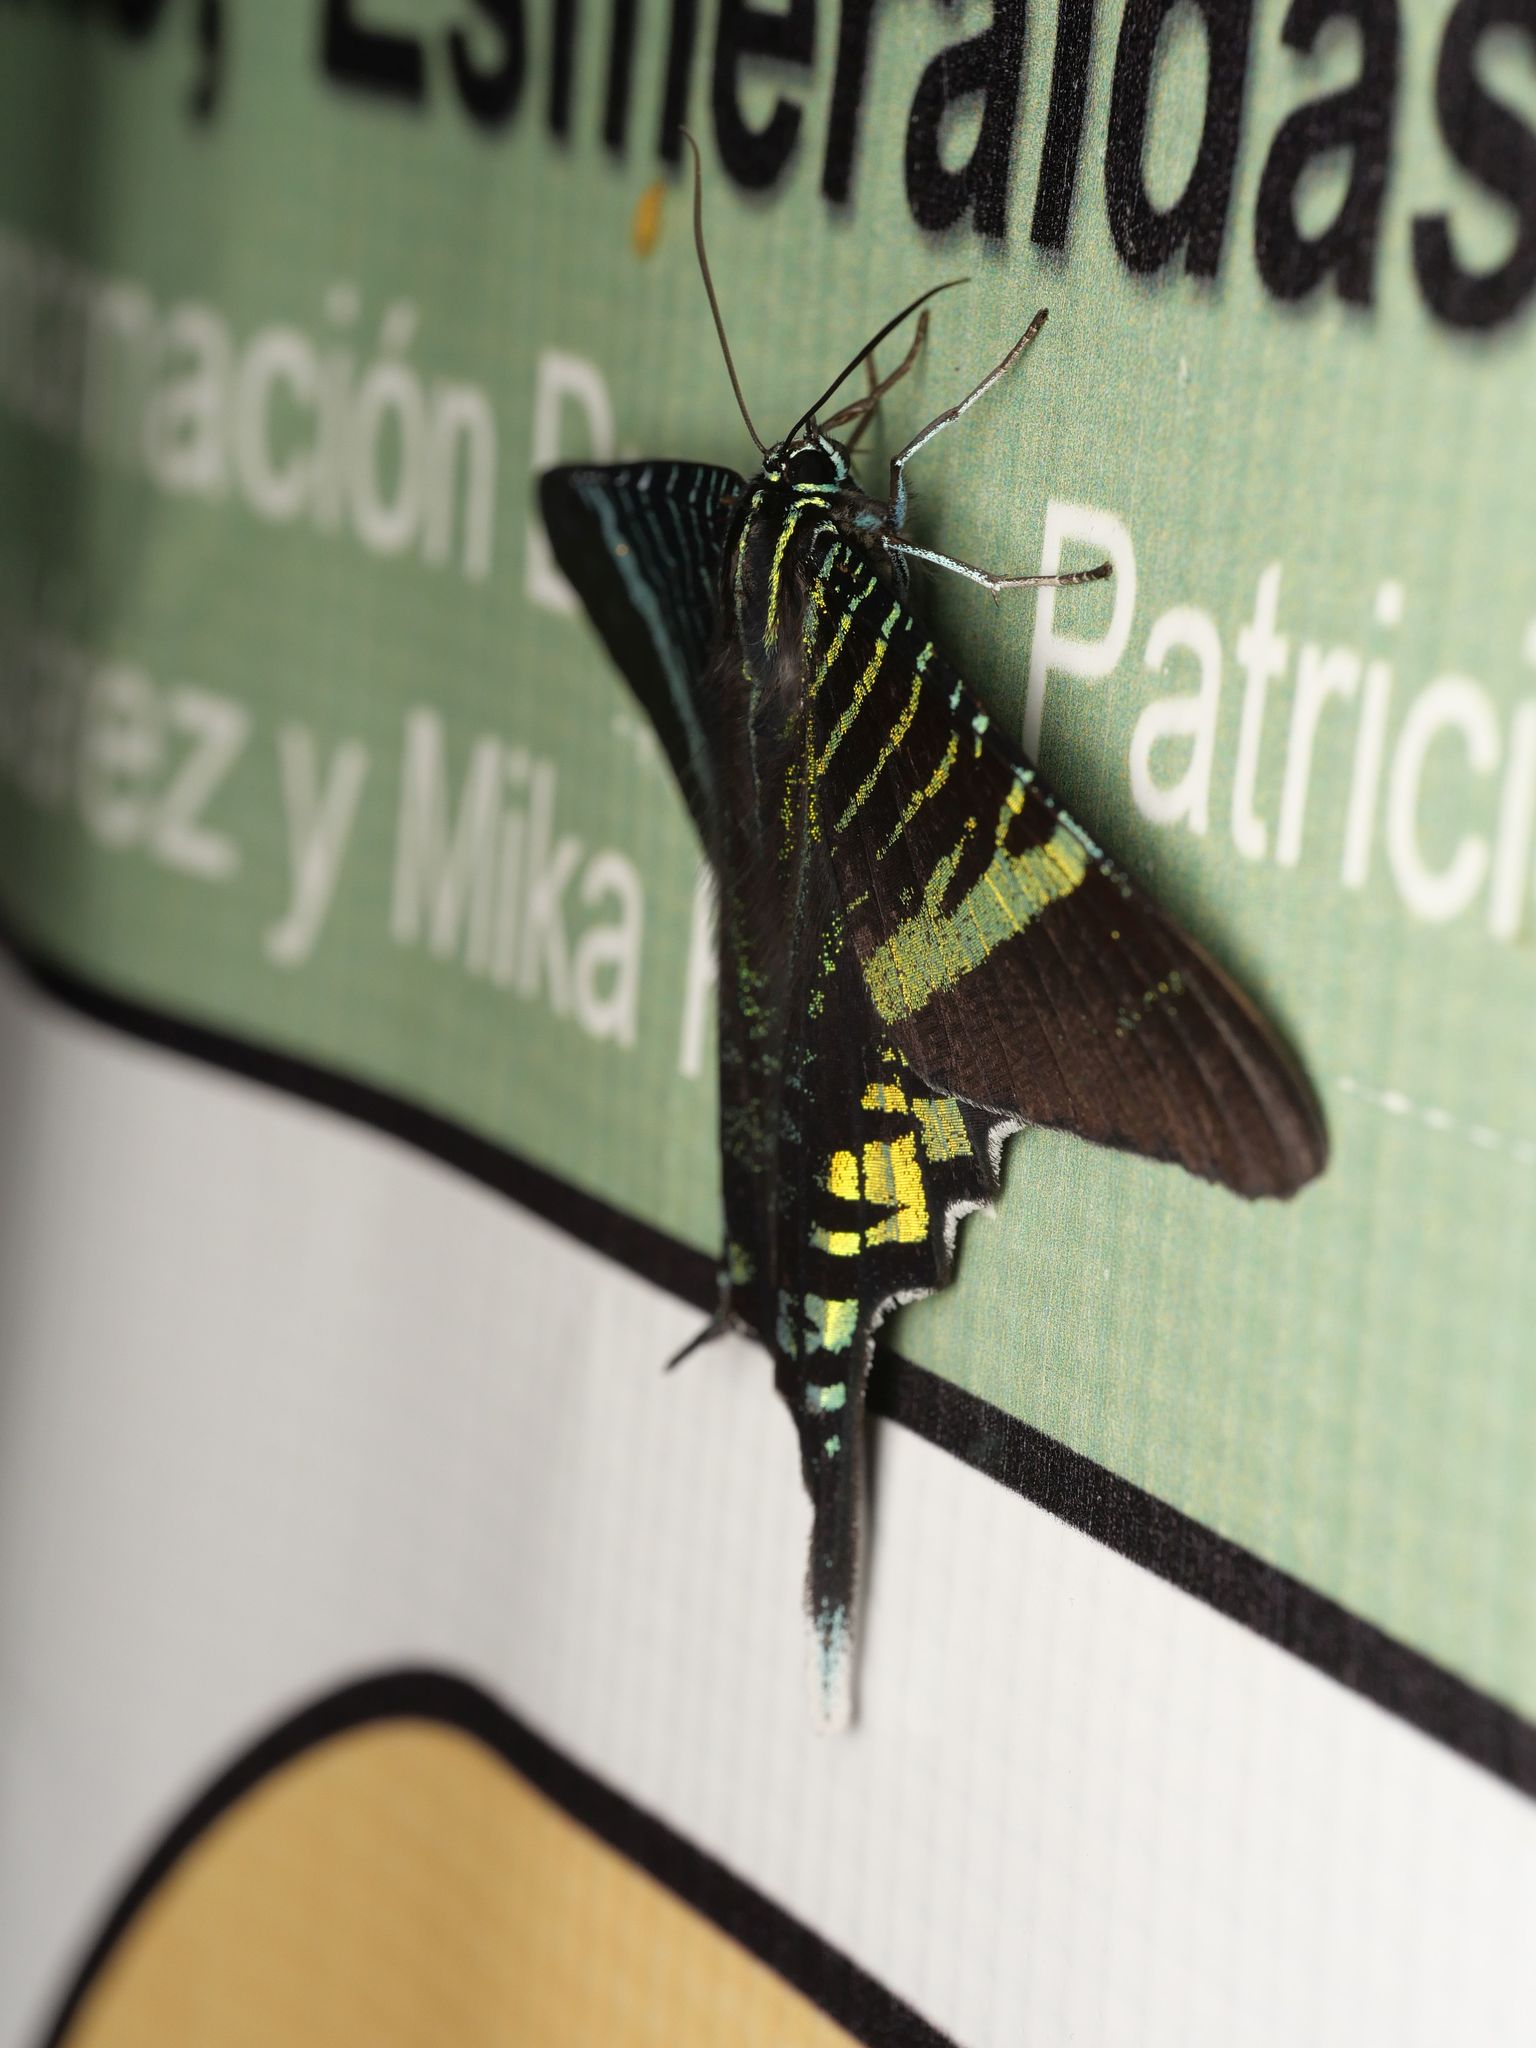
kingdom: Animalia
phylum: Arthropoda
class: Insecta
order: Lepidoptera
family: Uraniidae
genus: Urania
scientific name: Urania fulgens
